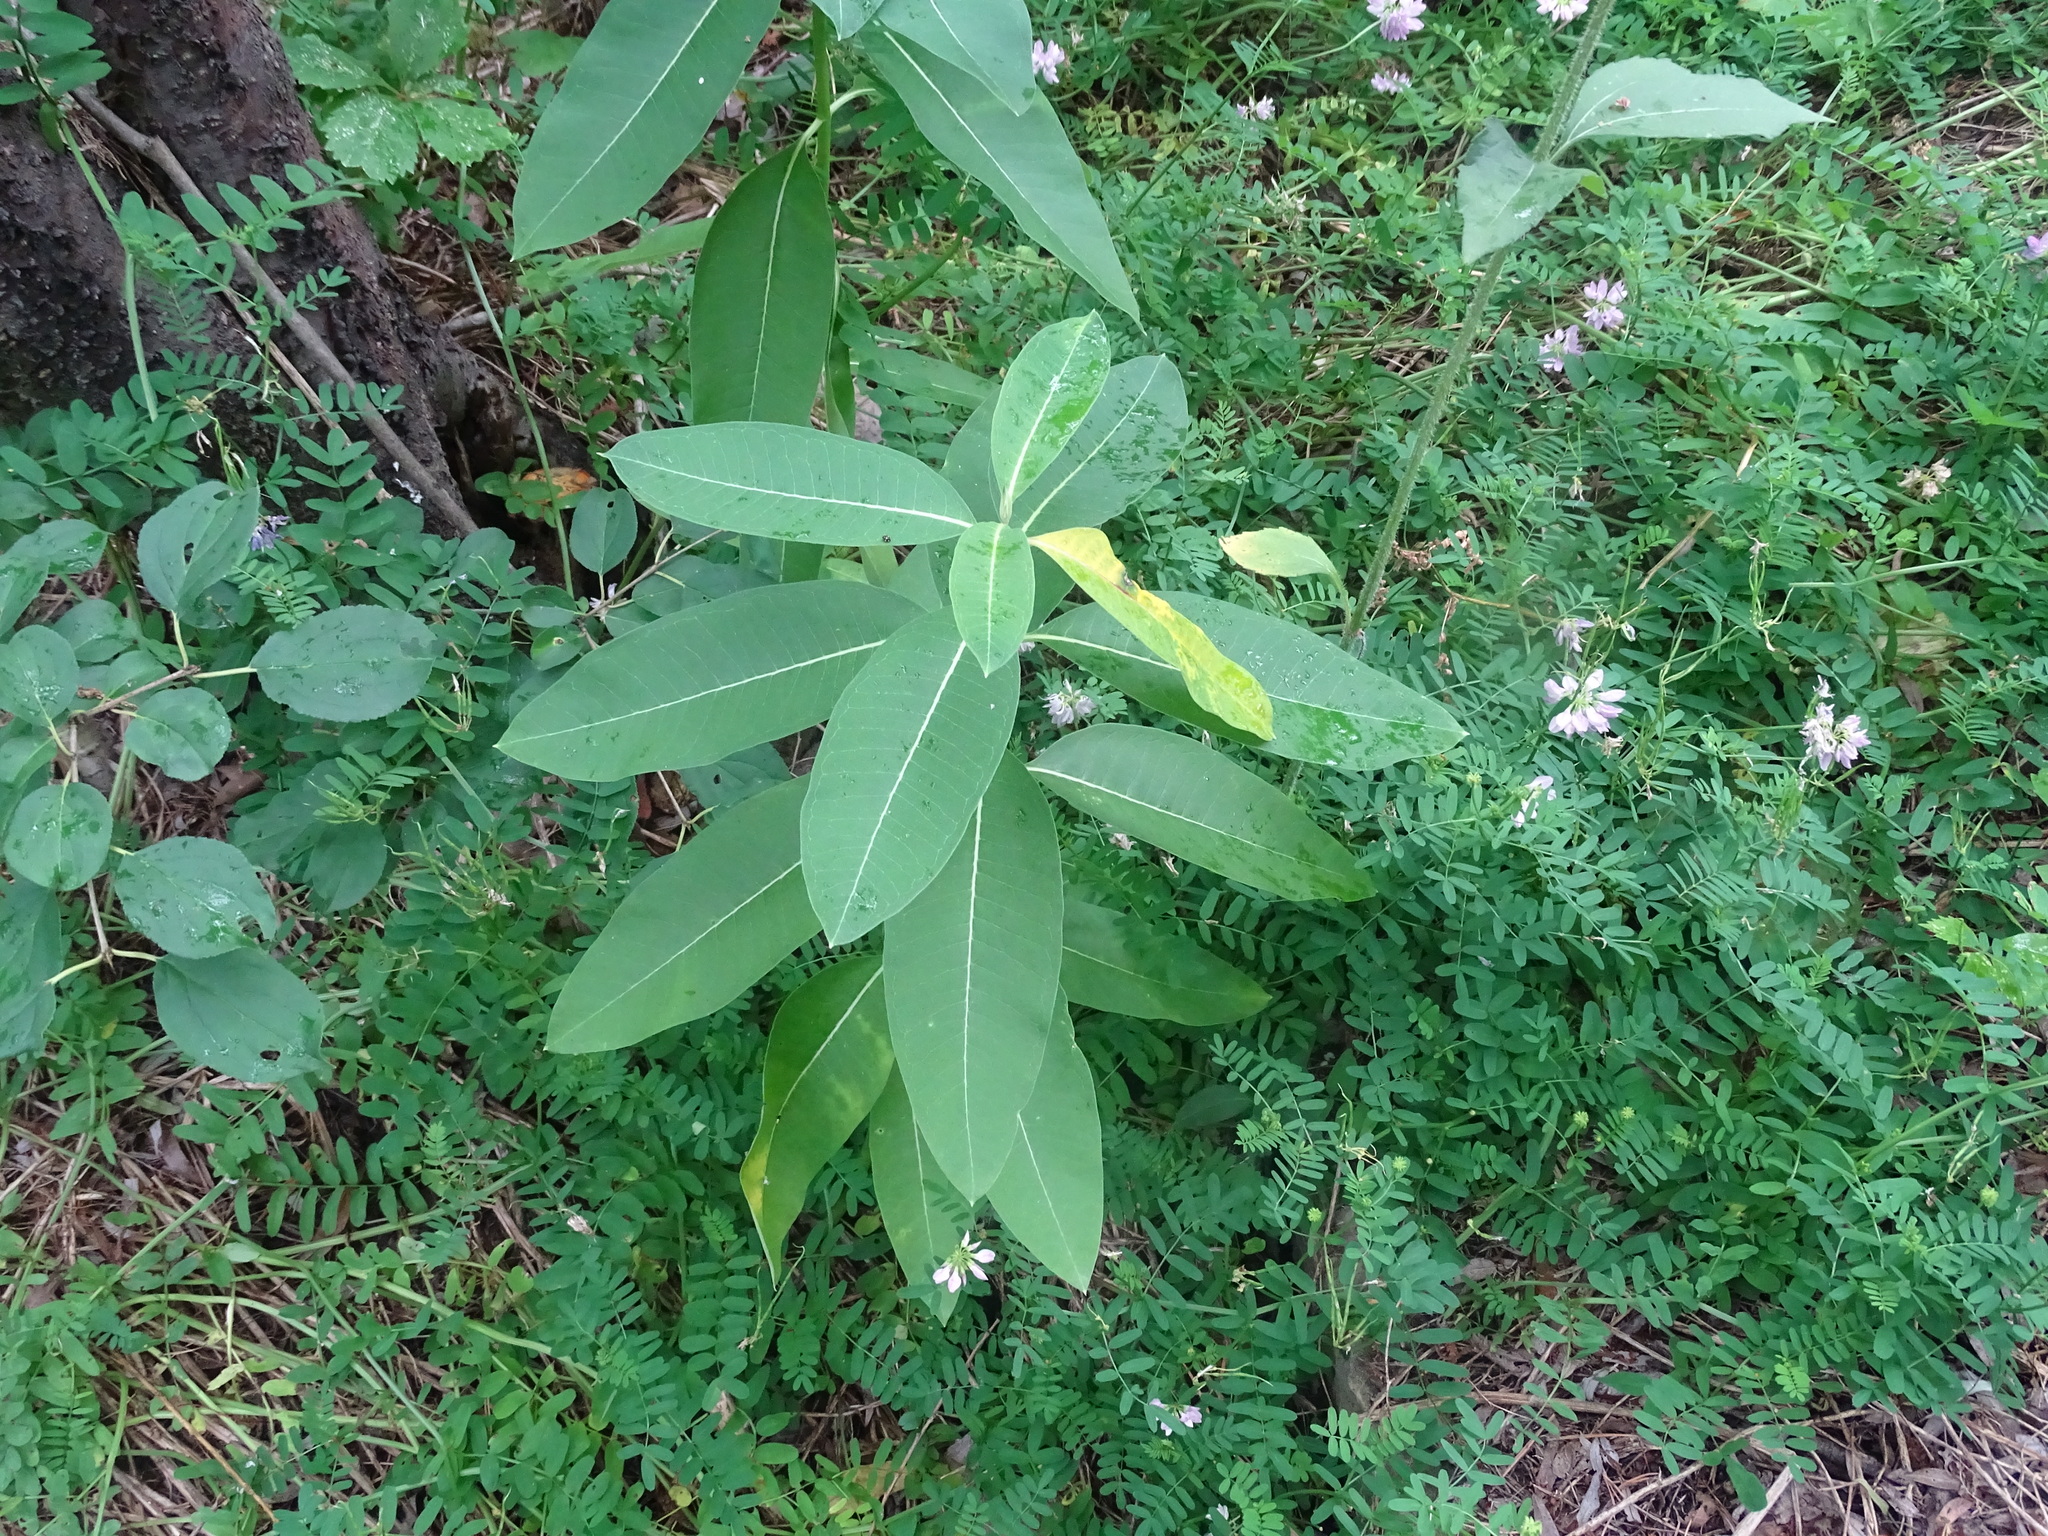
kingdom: Plantae
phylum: Tracheophyta
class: Magnoliopsida
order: Gentianales
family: Apocynaceae
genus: Asclepias
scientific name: Asclepias syriaca
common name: Common milkweed
